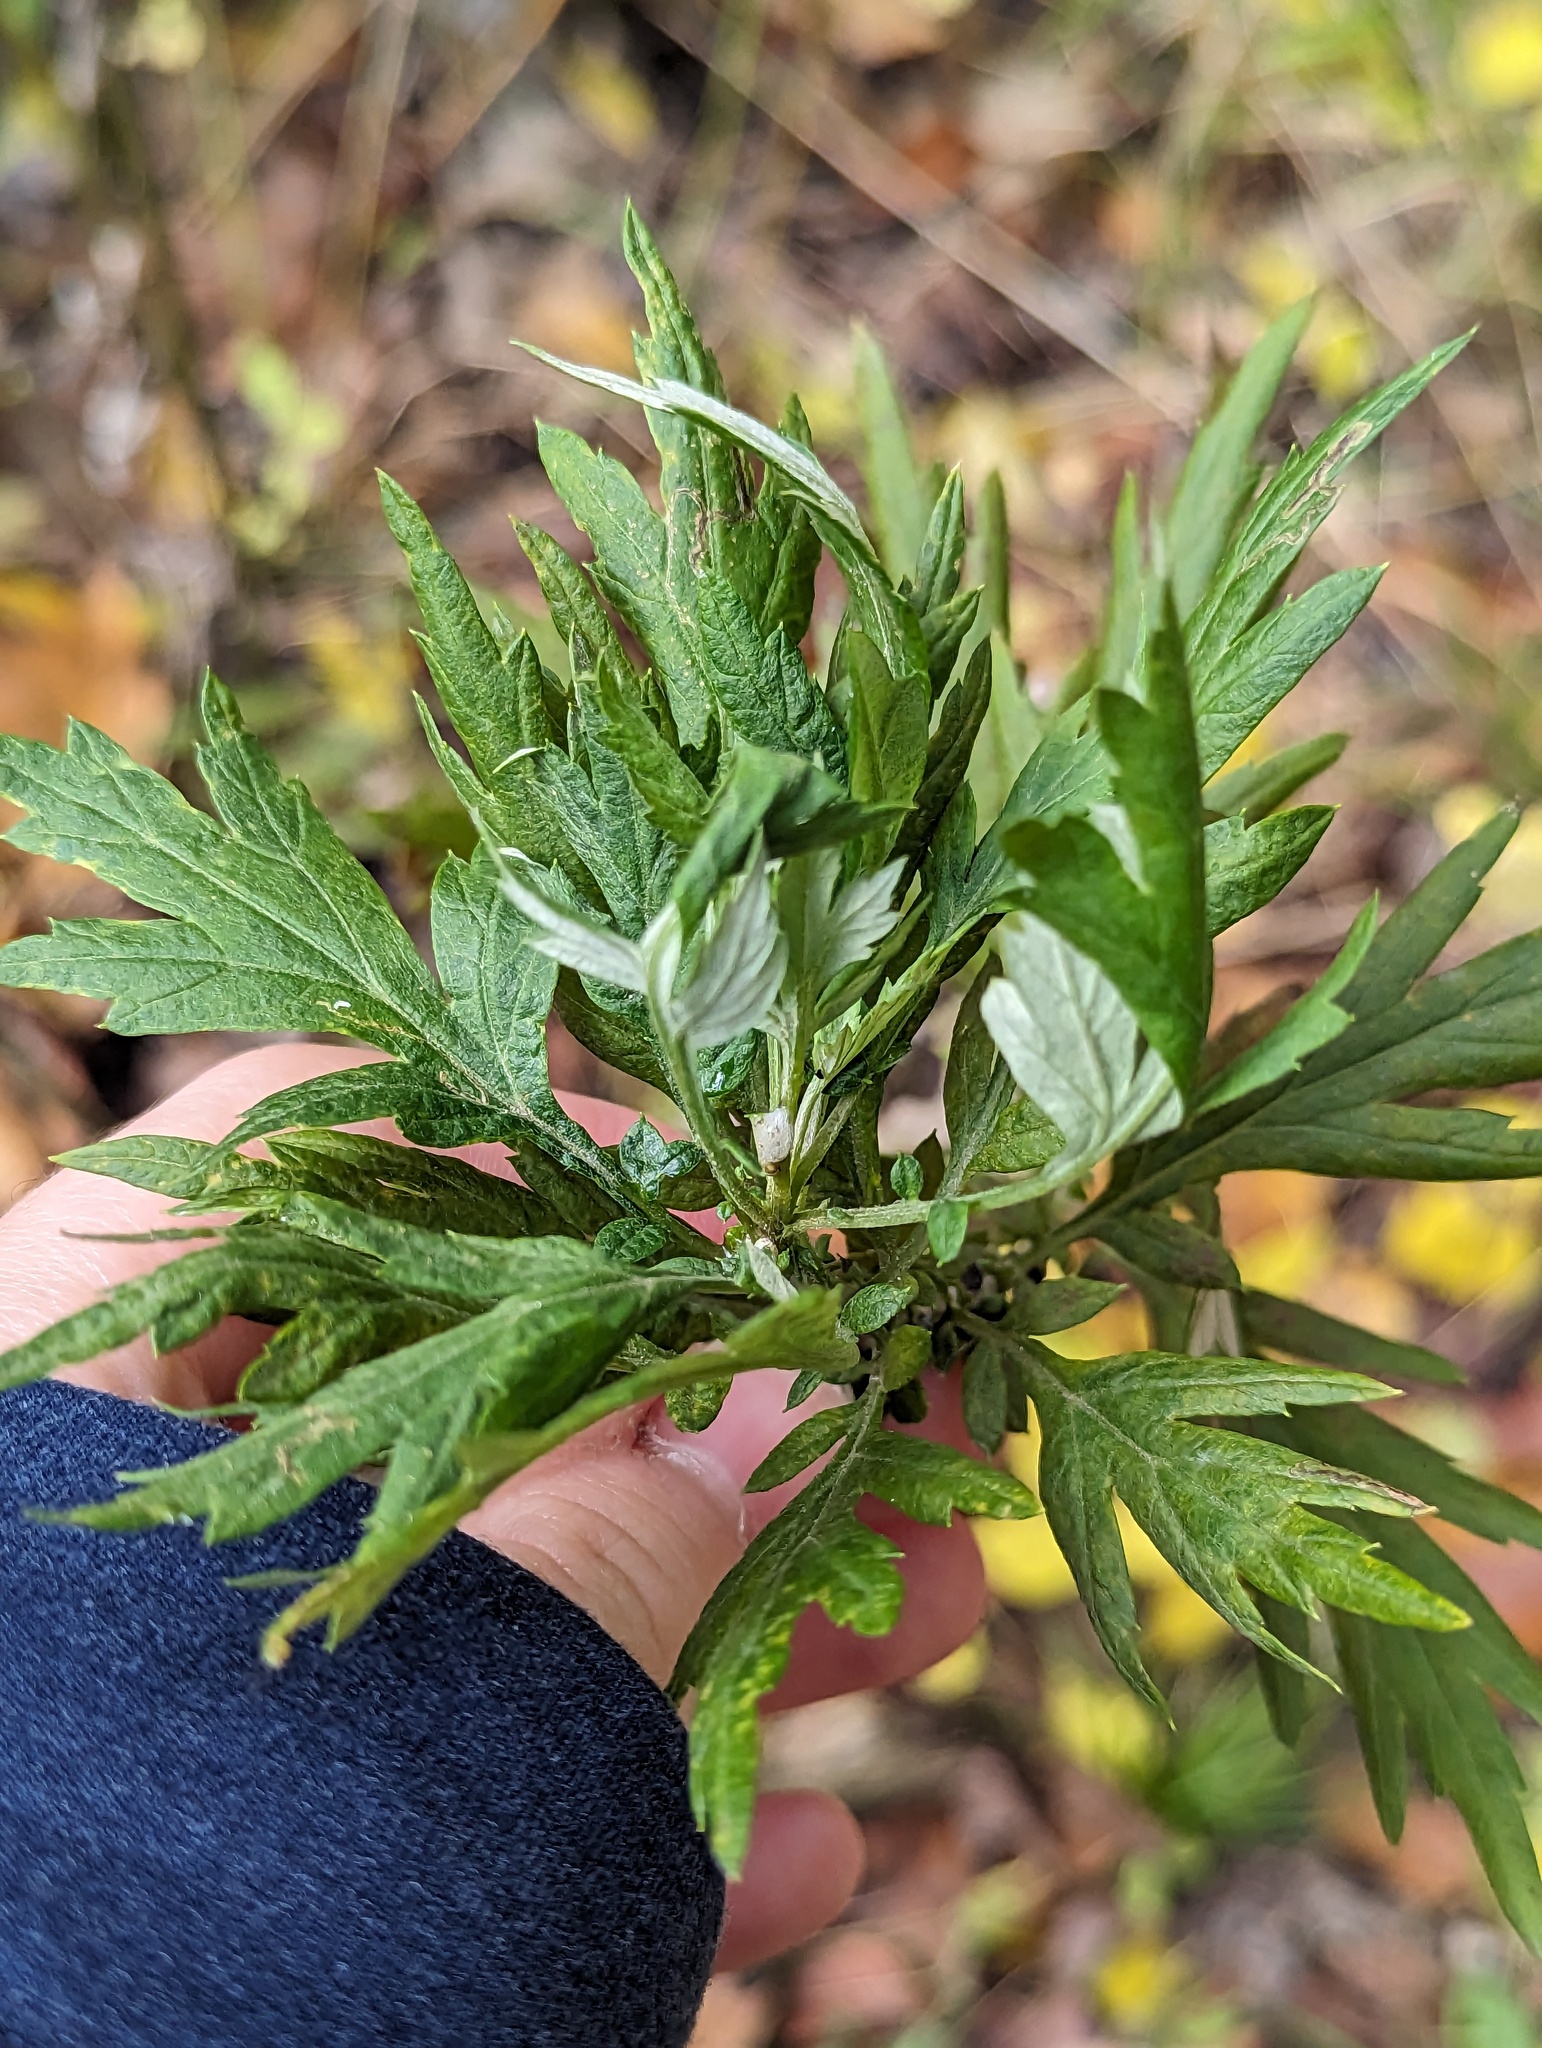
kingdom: Plantae
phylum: Tracheophyta
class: Magnoliopsida
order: Asterales
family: Asteraceae
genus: Artemisia
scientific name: Artemisia vulgaris
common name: Mugwort
